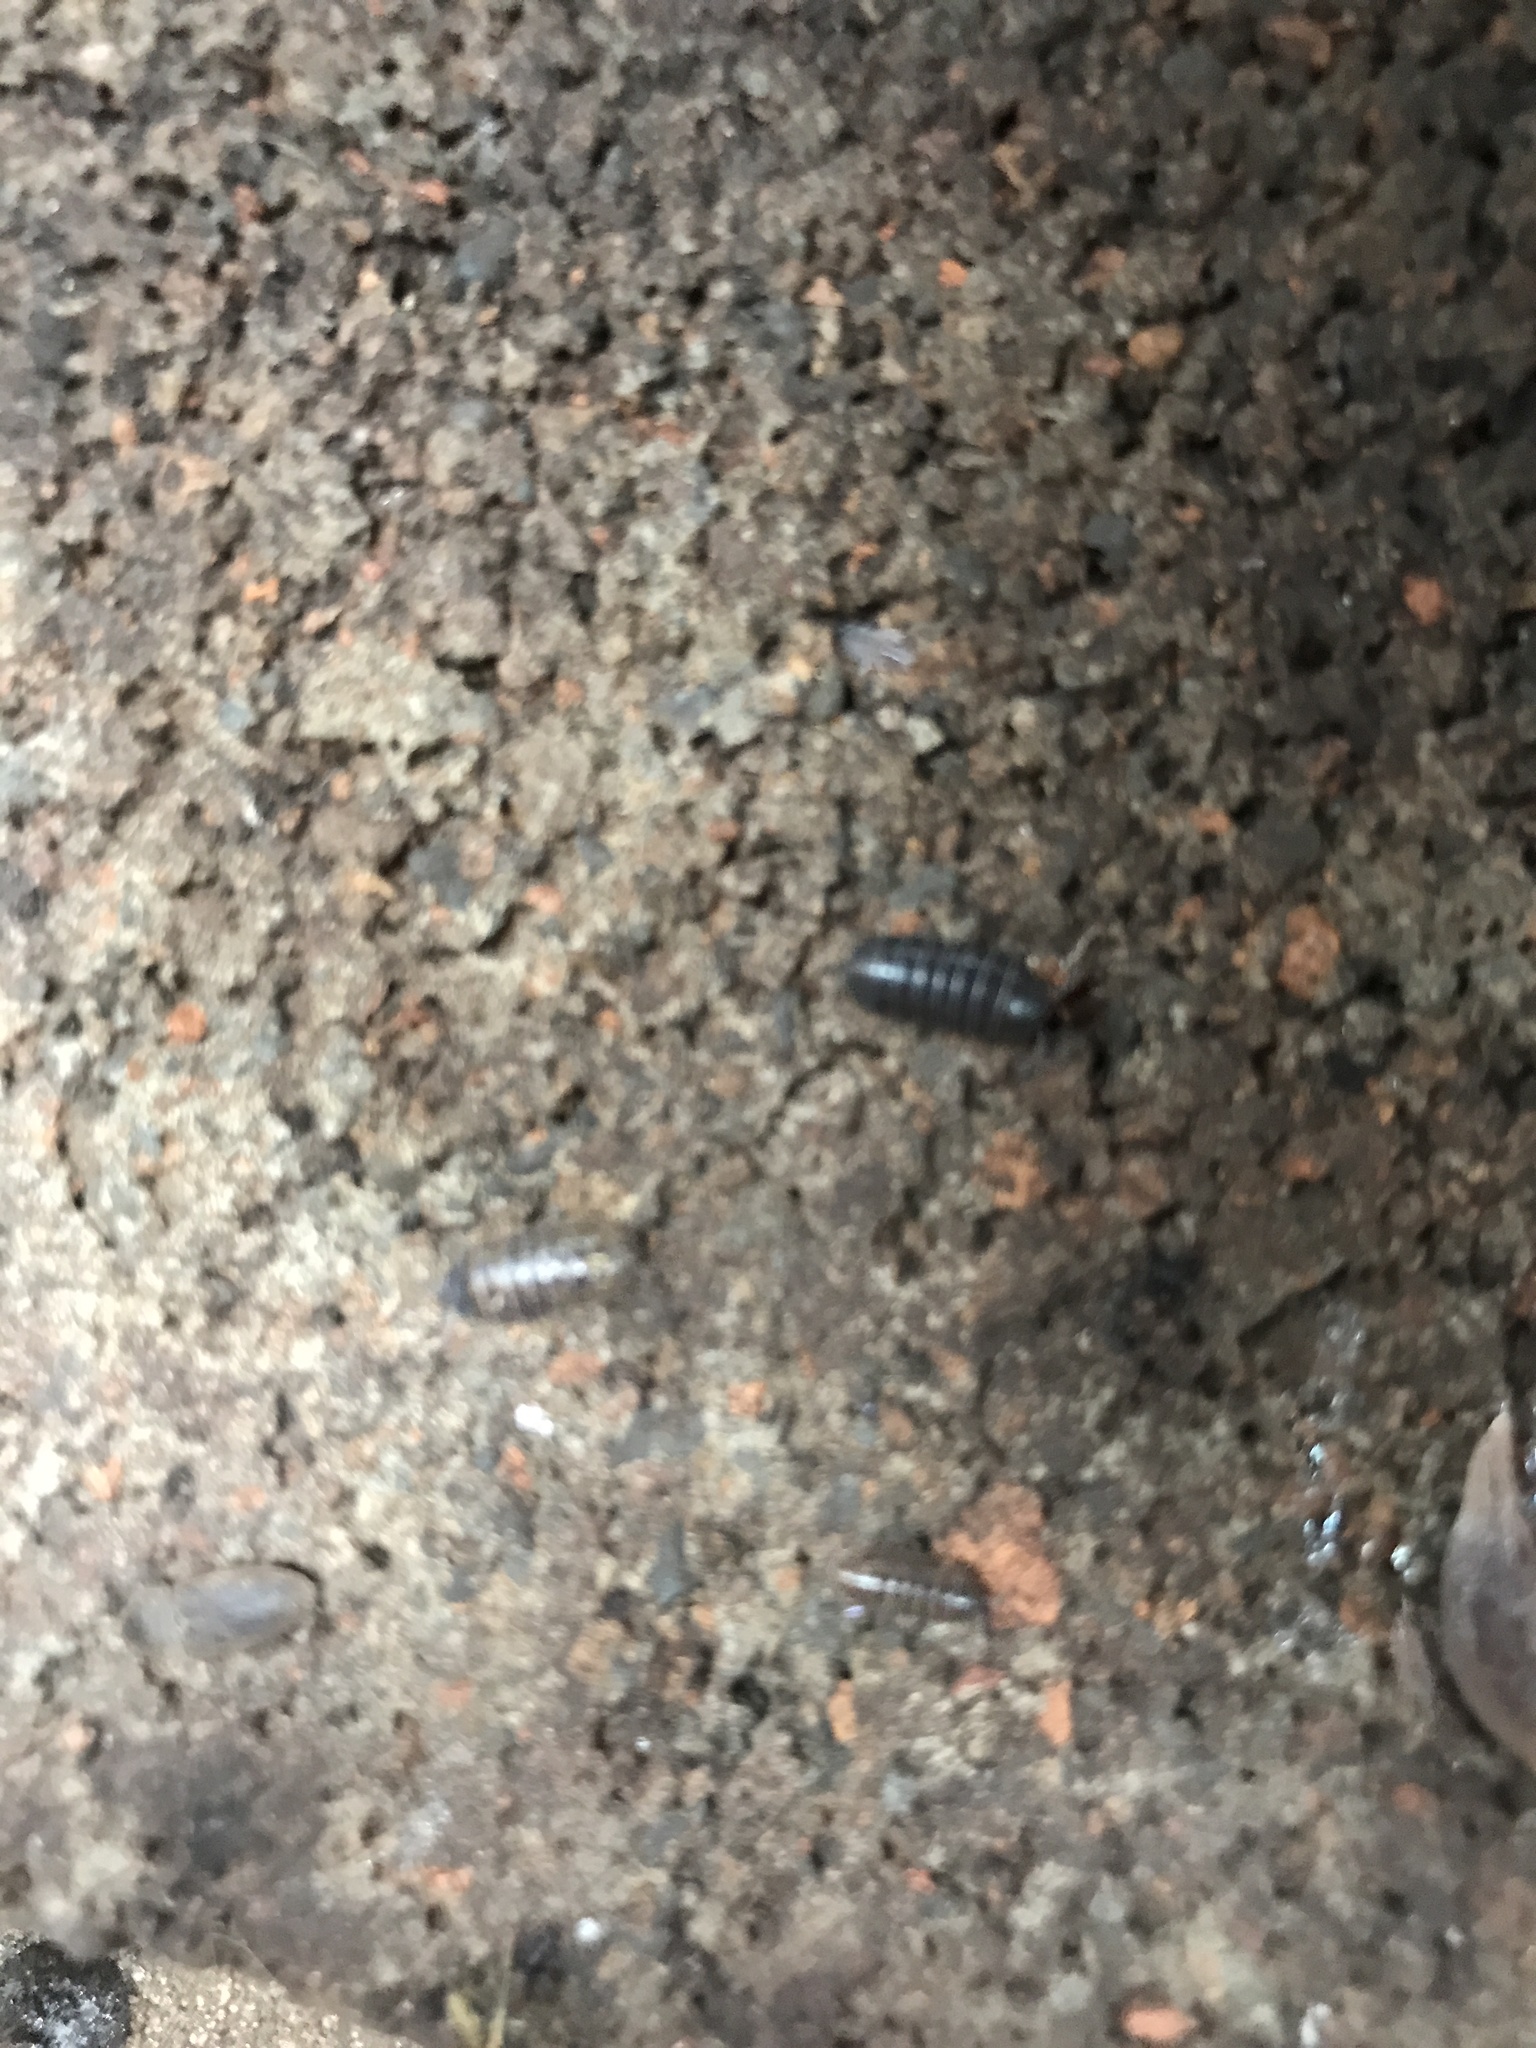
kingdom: Animalia
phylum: Arthropoda
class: Malacostraca
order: Isopoda
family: Armadillidiidae
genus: Armadillidium
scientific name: Armadillidium vulgare
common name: Common pill woodlouse
